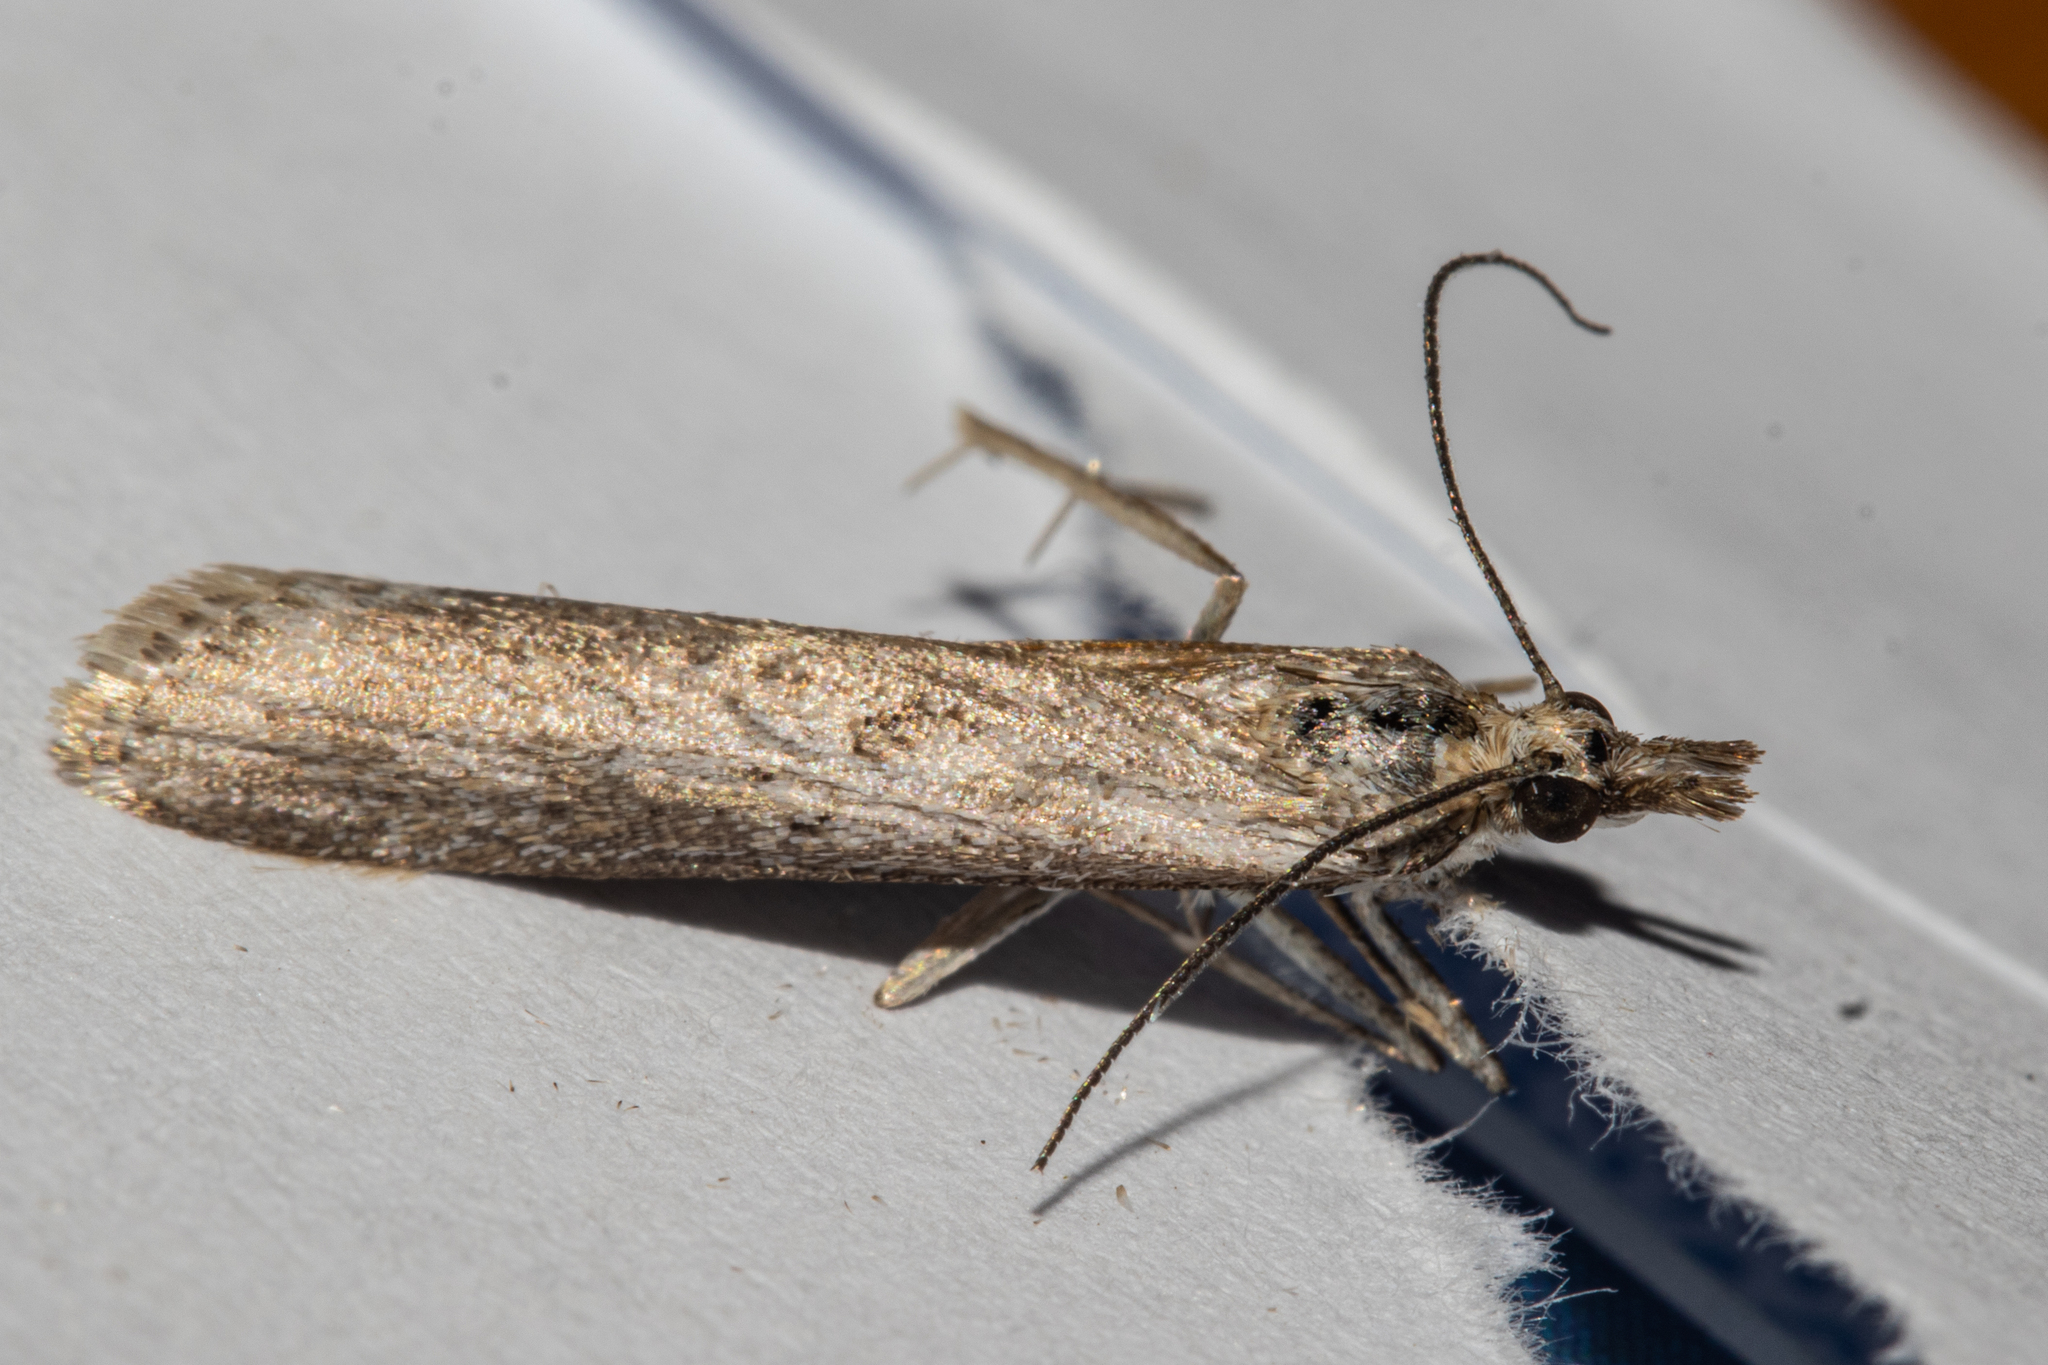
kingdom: Animalia
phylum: Arthropoda
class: Insecta
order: Lepidoptera
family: Crambidae
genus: Eudonia
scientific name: Eudonia leptalea
